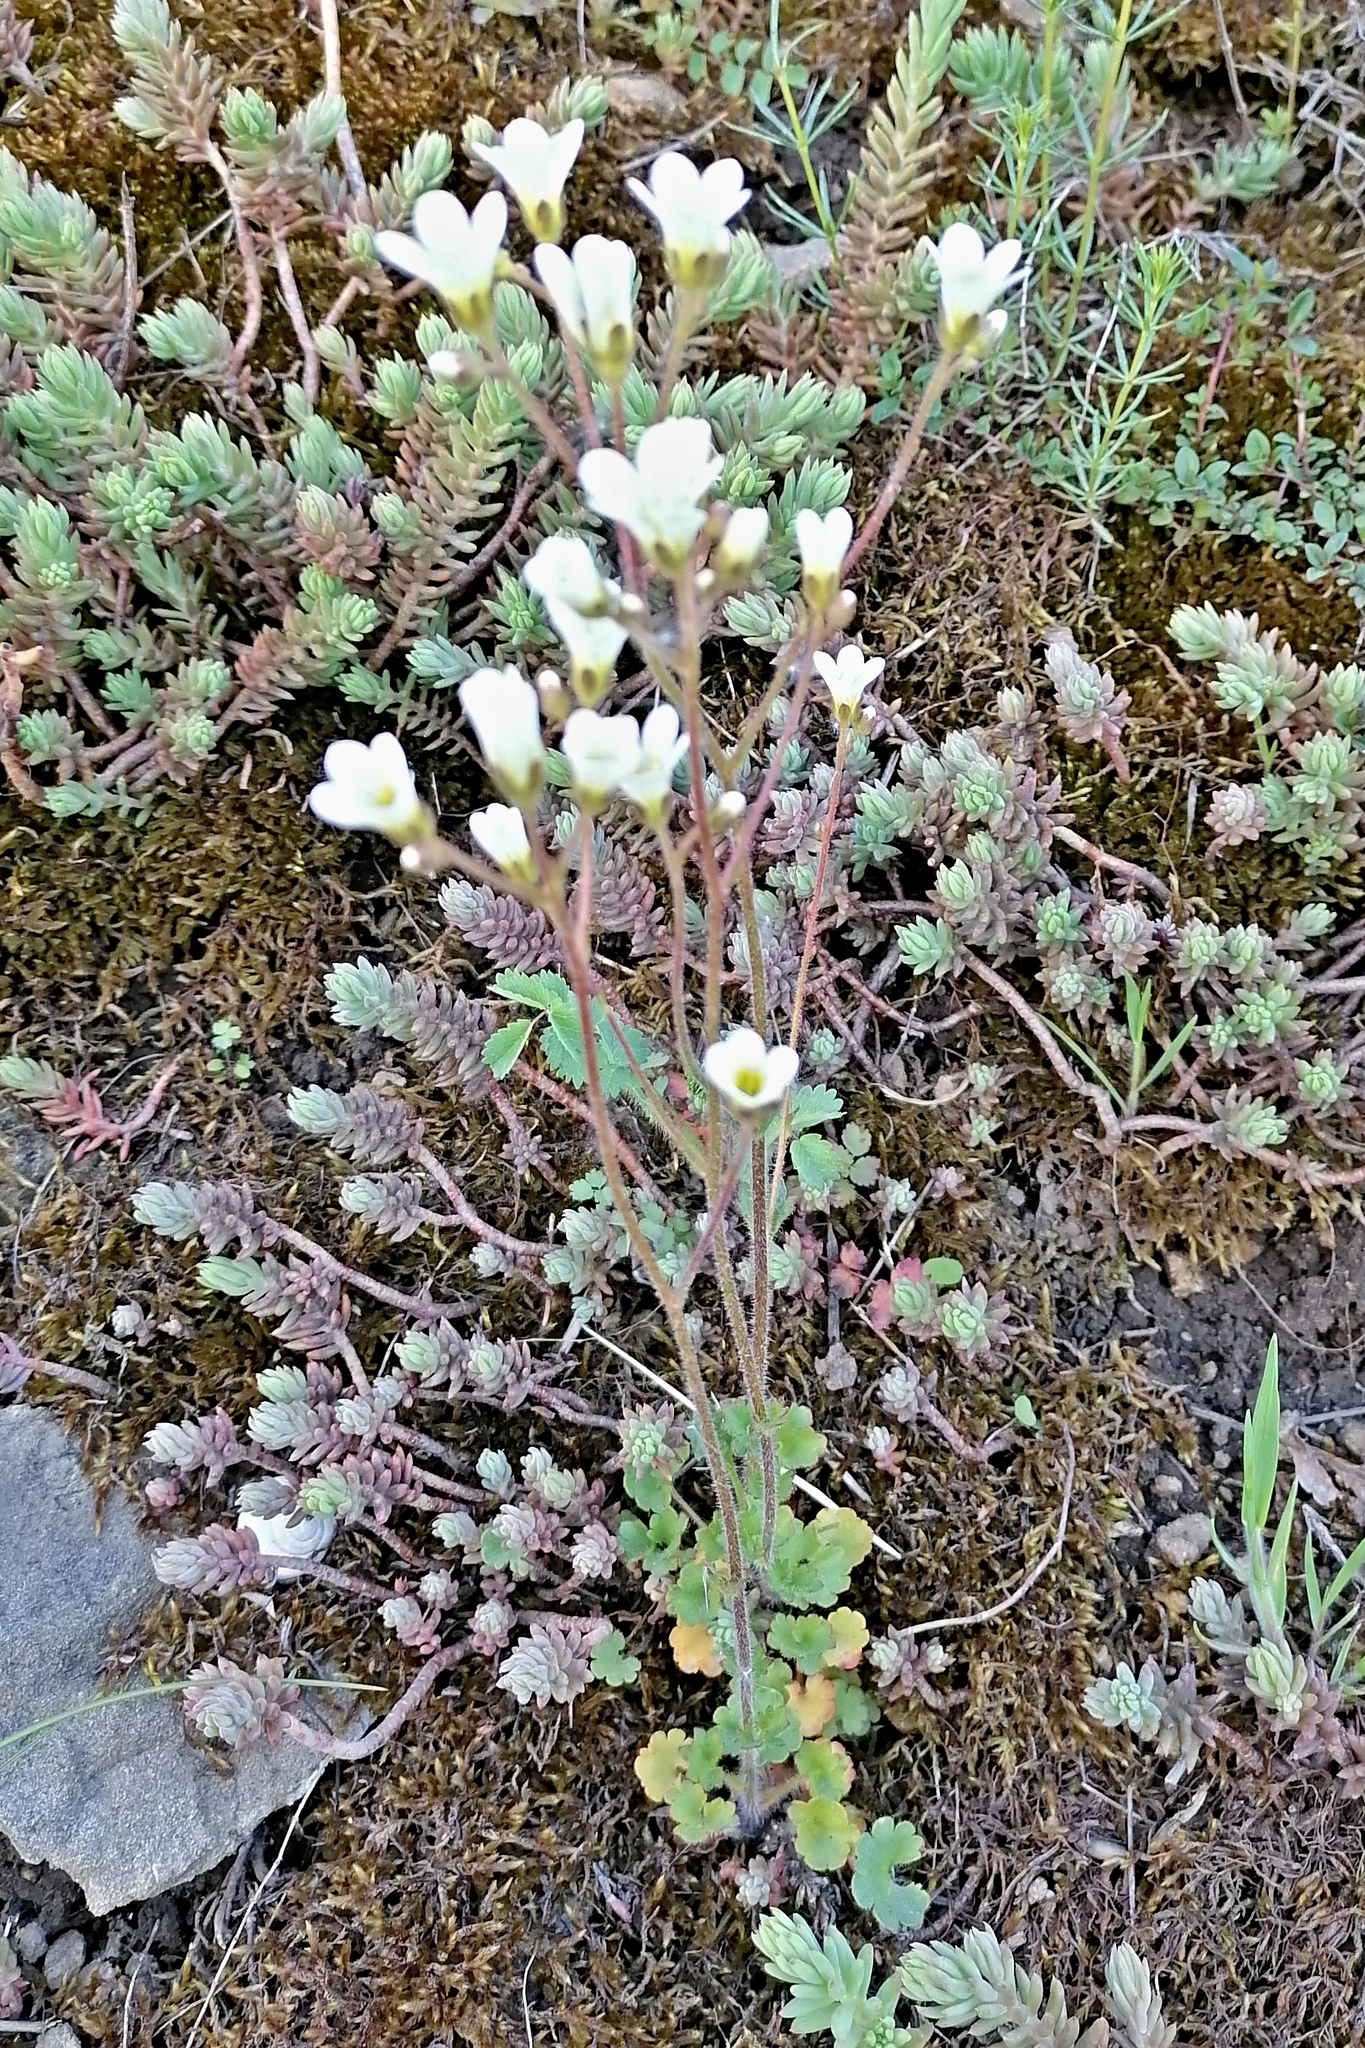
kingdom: Plantae
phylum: Tracheophyta
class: Magnoliopsida
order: Saxifragales
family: Saxifragaceae
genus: Saxifraga
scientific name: Saxifraga granulata
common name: Meadow saxifrage
